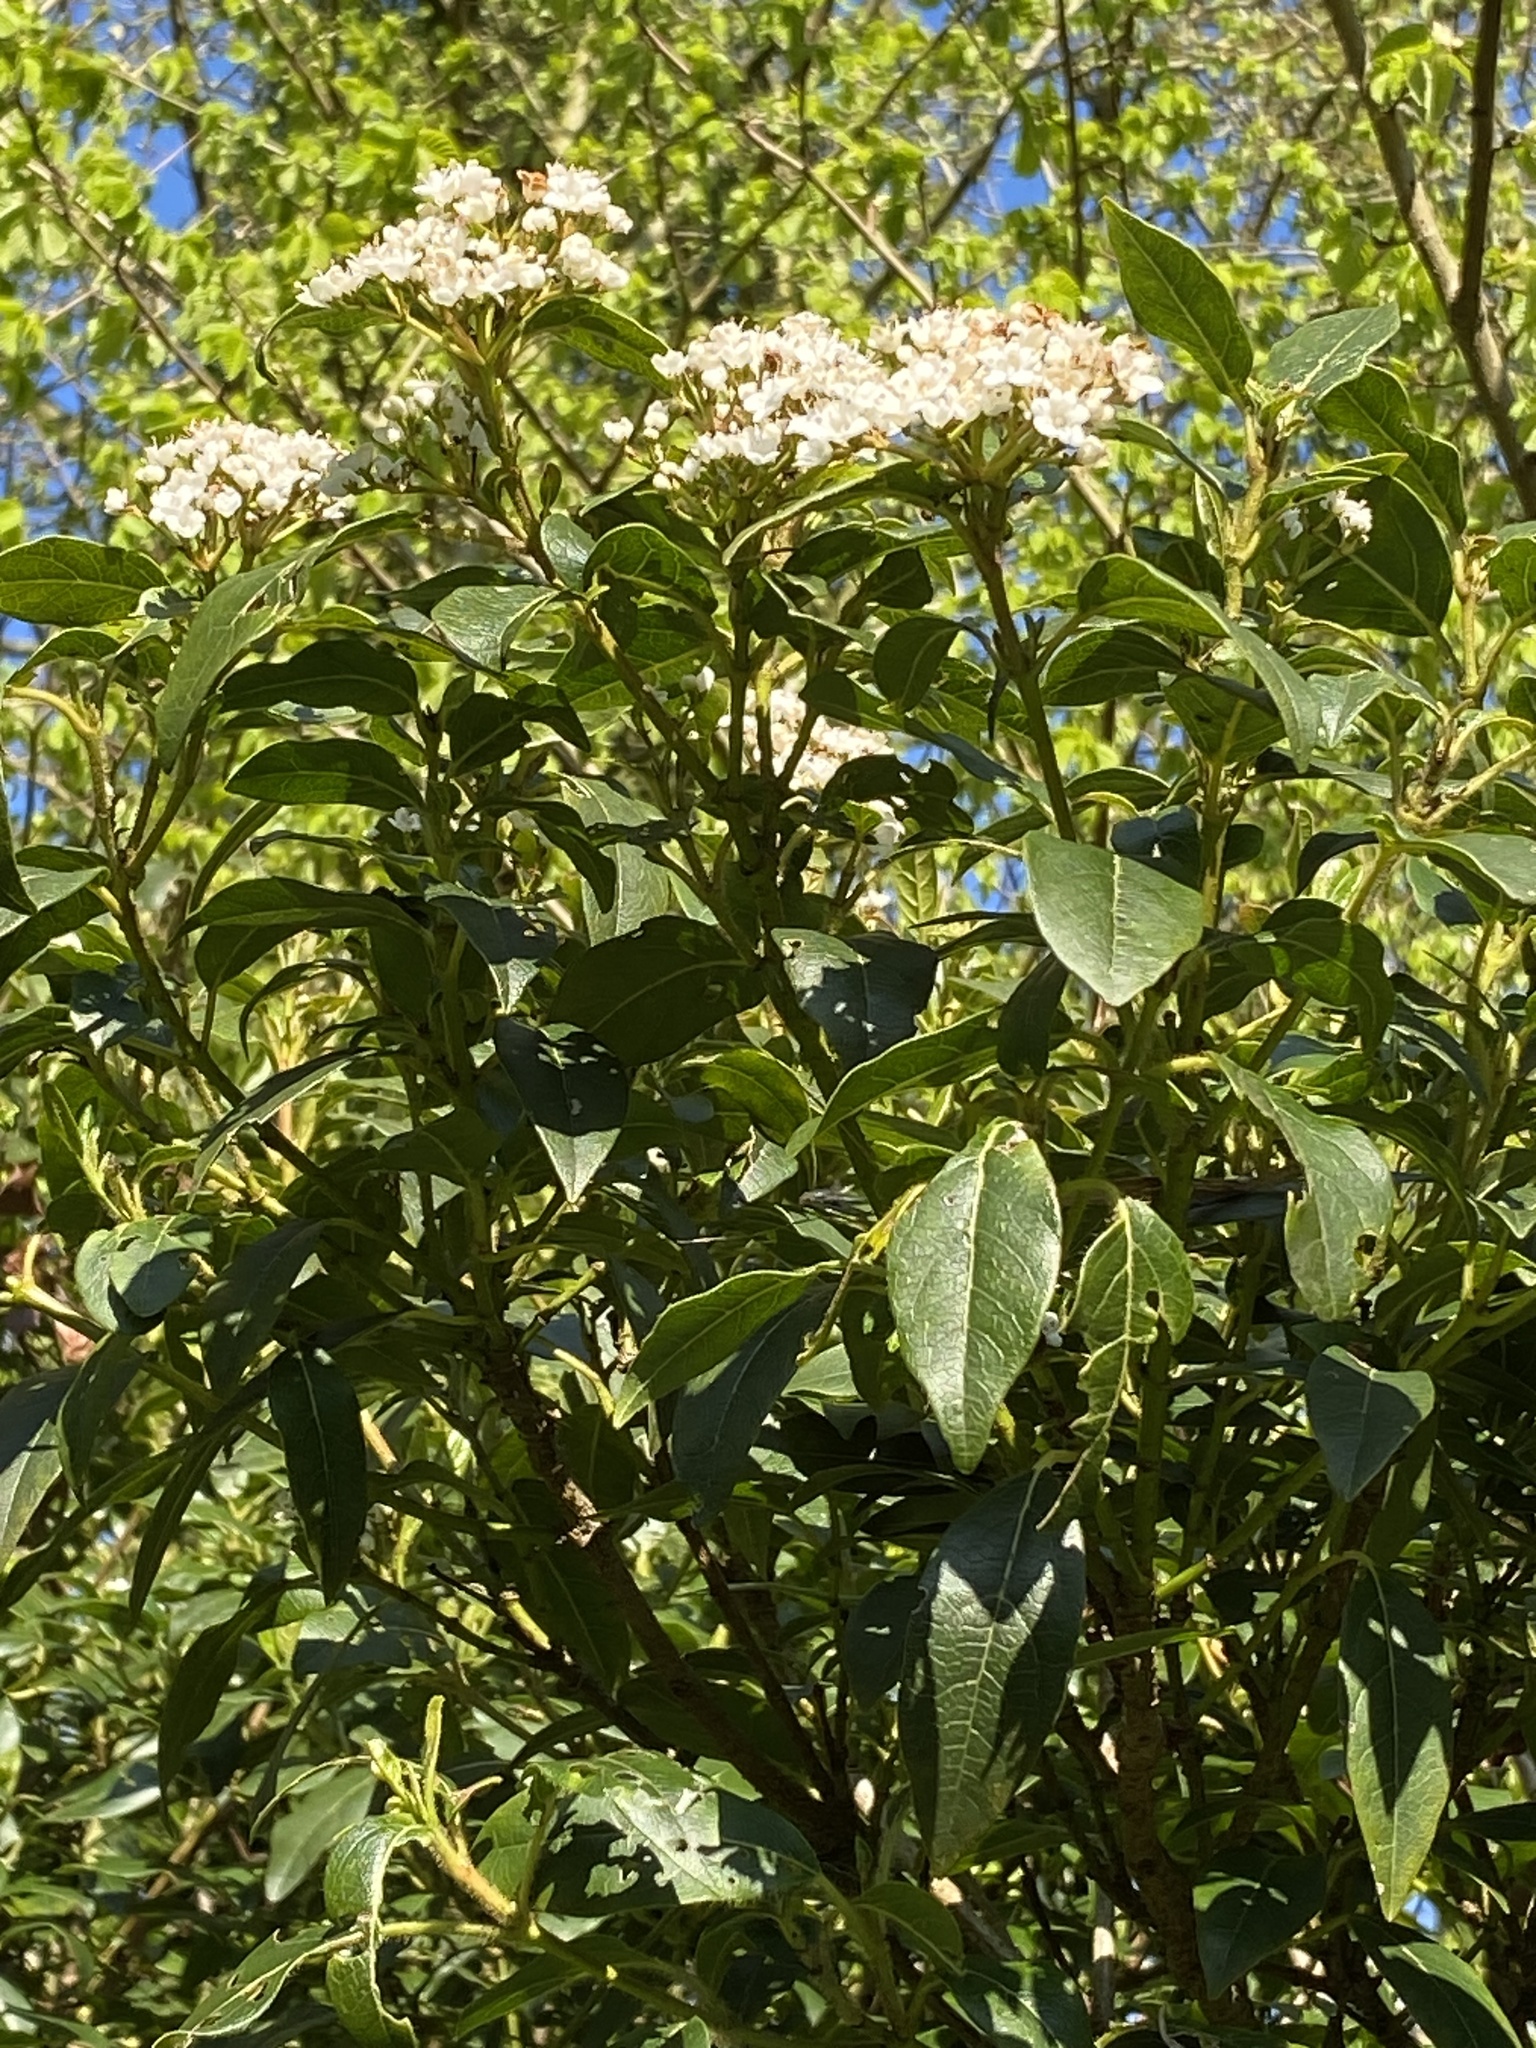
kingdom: Plantae
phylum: Tracheophyta
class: Magnoliopsida
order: Dipsacales
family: Viburnaceae
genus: Viburnum
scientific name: Viburnum tinus
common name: Laurustinus
